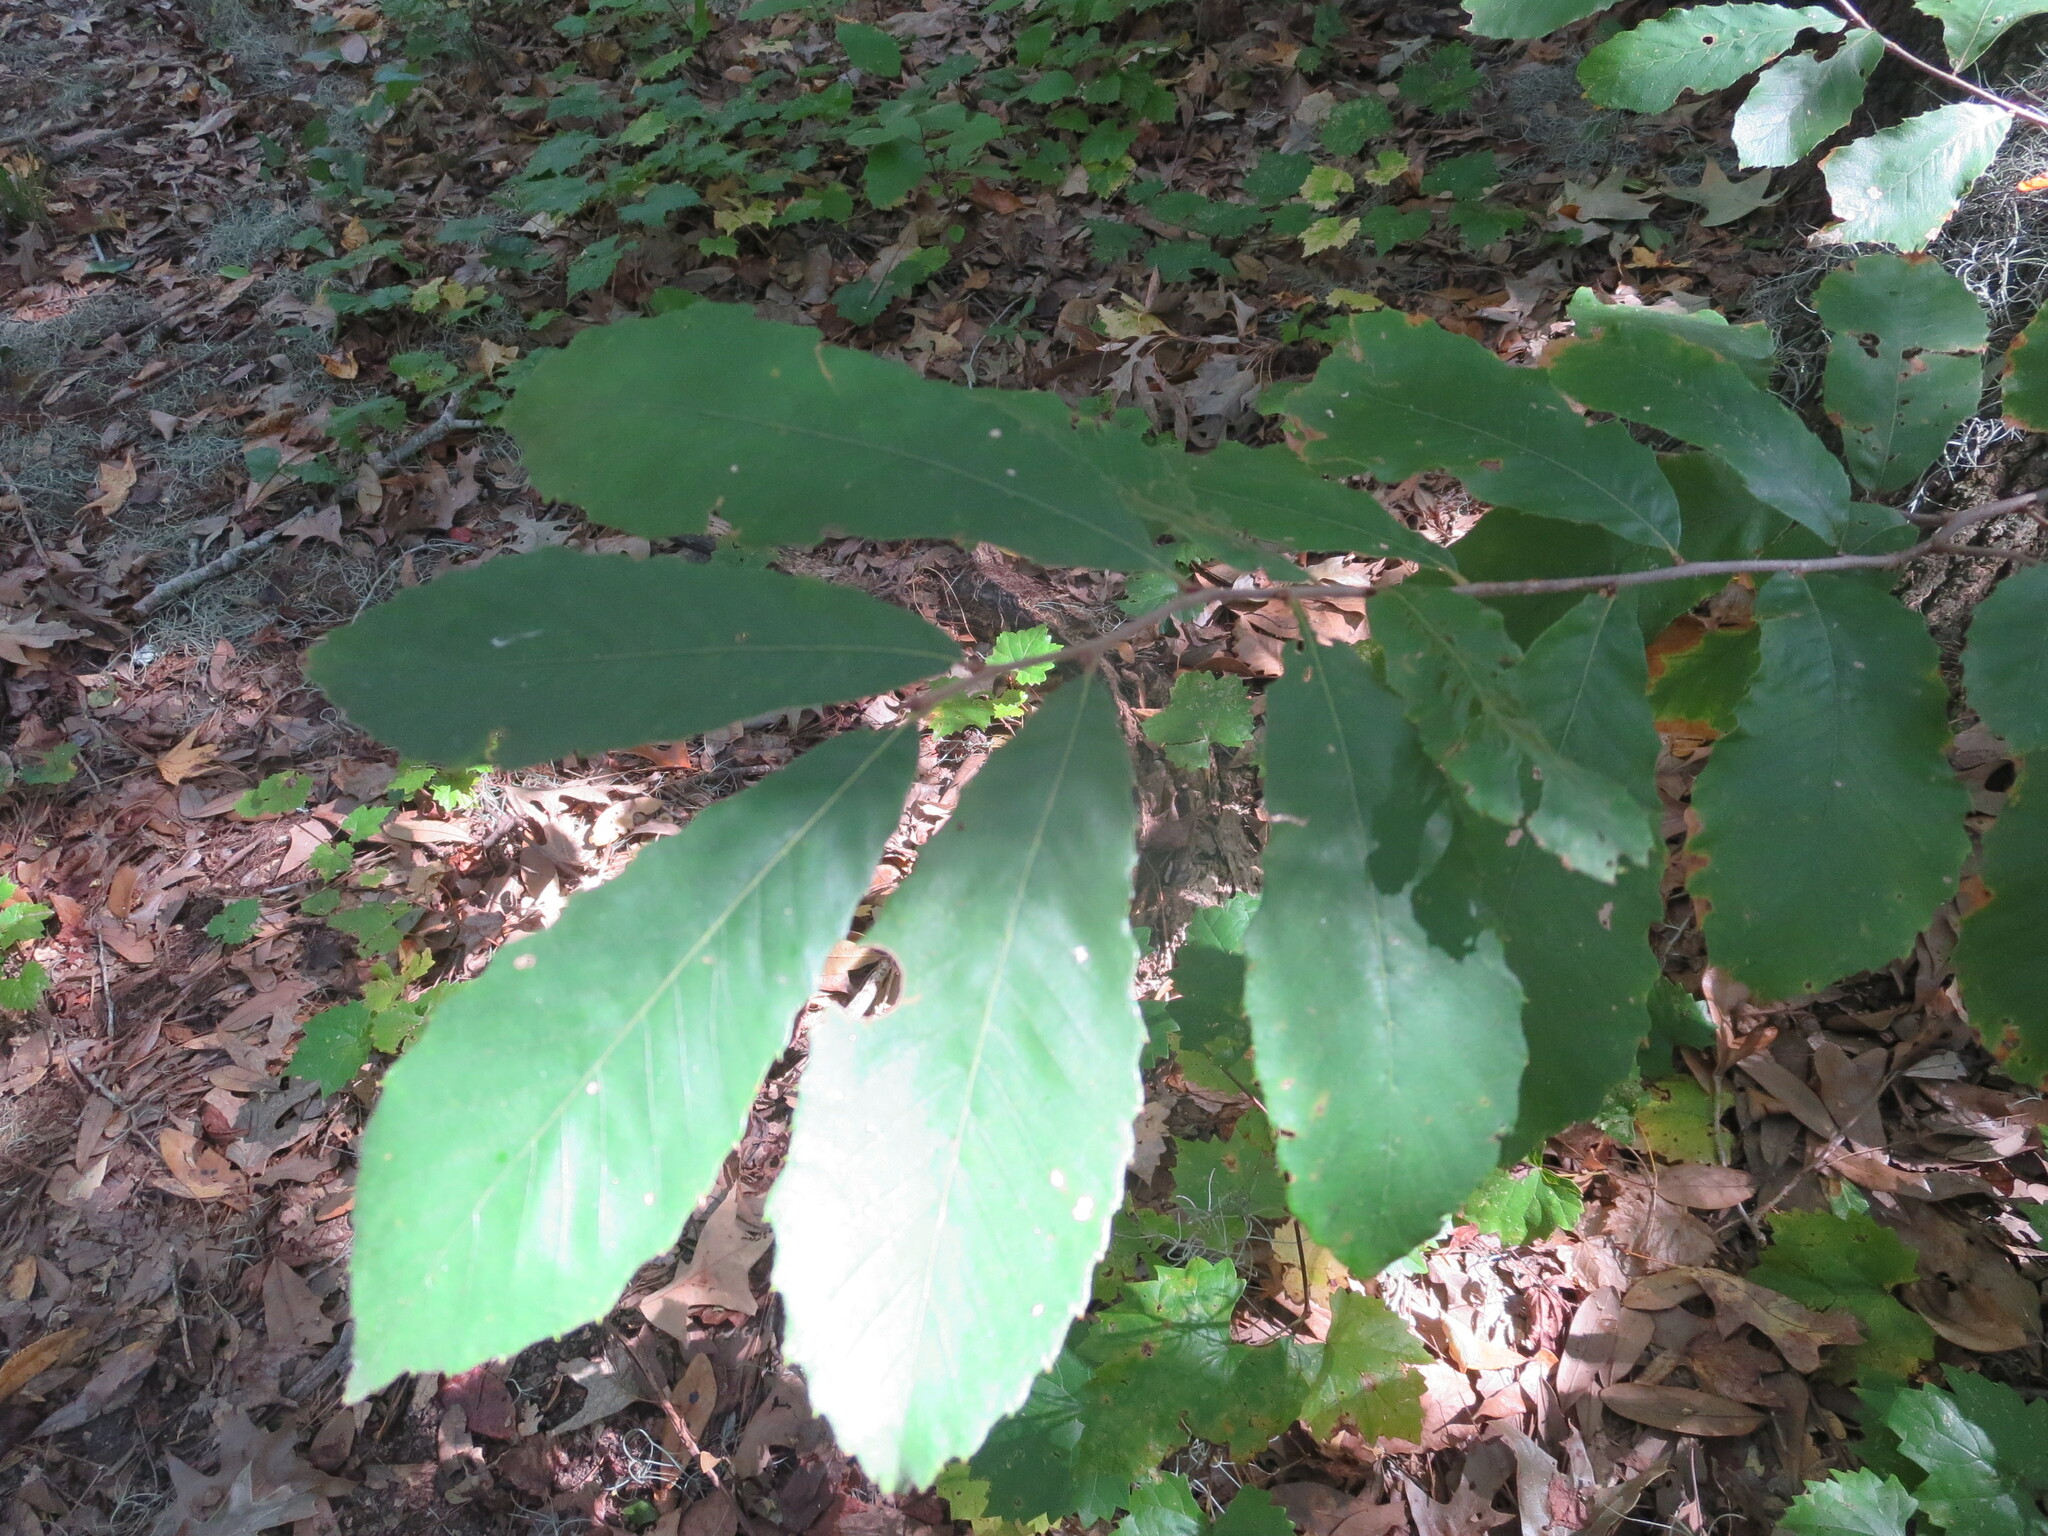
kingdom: Plantae
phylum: Tracheophyta
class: Magnoliopsida
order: Fagales
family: Fagaceae
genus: Castanea
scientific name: Castanea pumila
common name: Chinkapin
